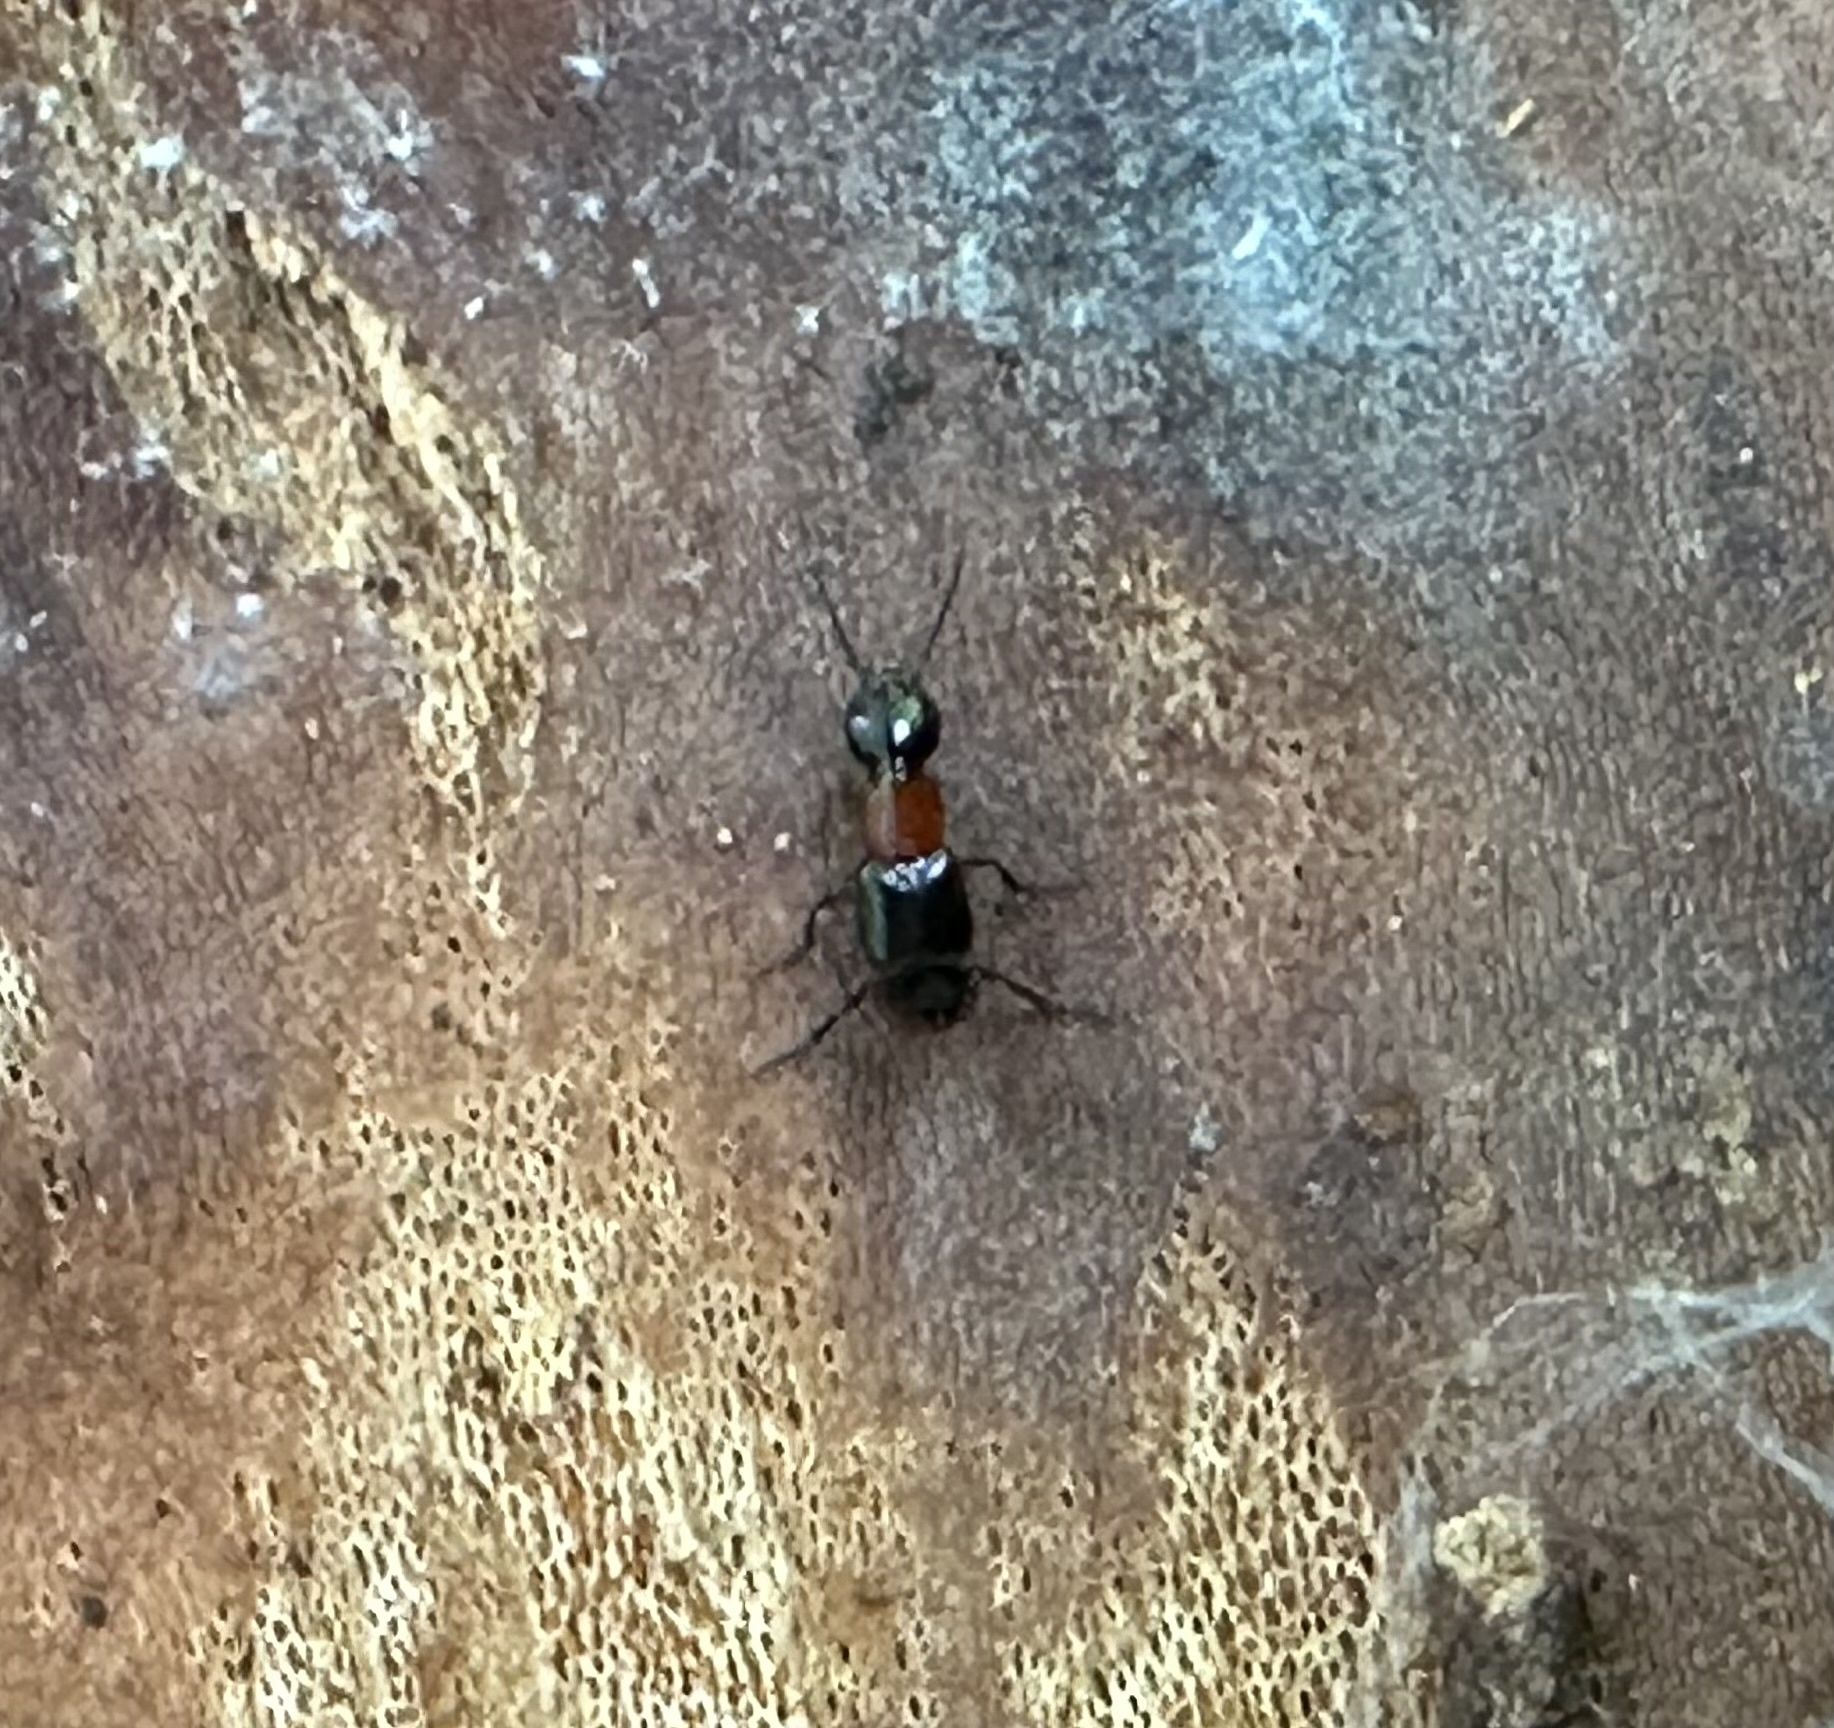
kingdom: Animalia
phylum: Arthropoda
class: Insecta
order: Coleoptera
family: Staphylinidae
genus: Bisnius
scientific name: Bisnius blandus
